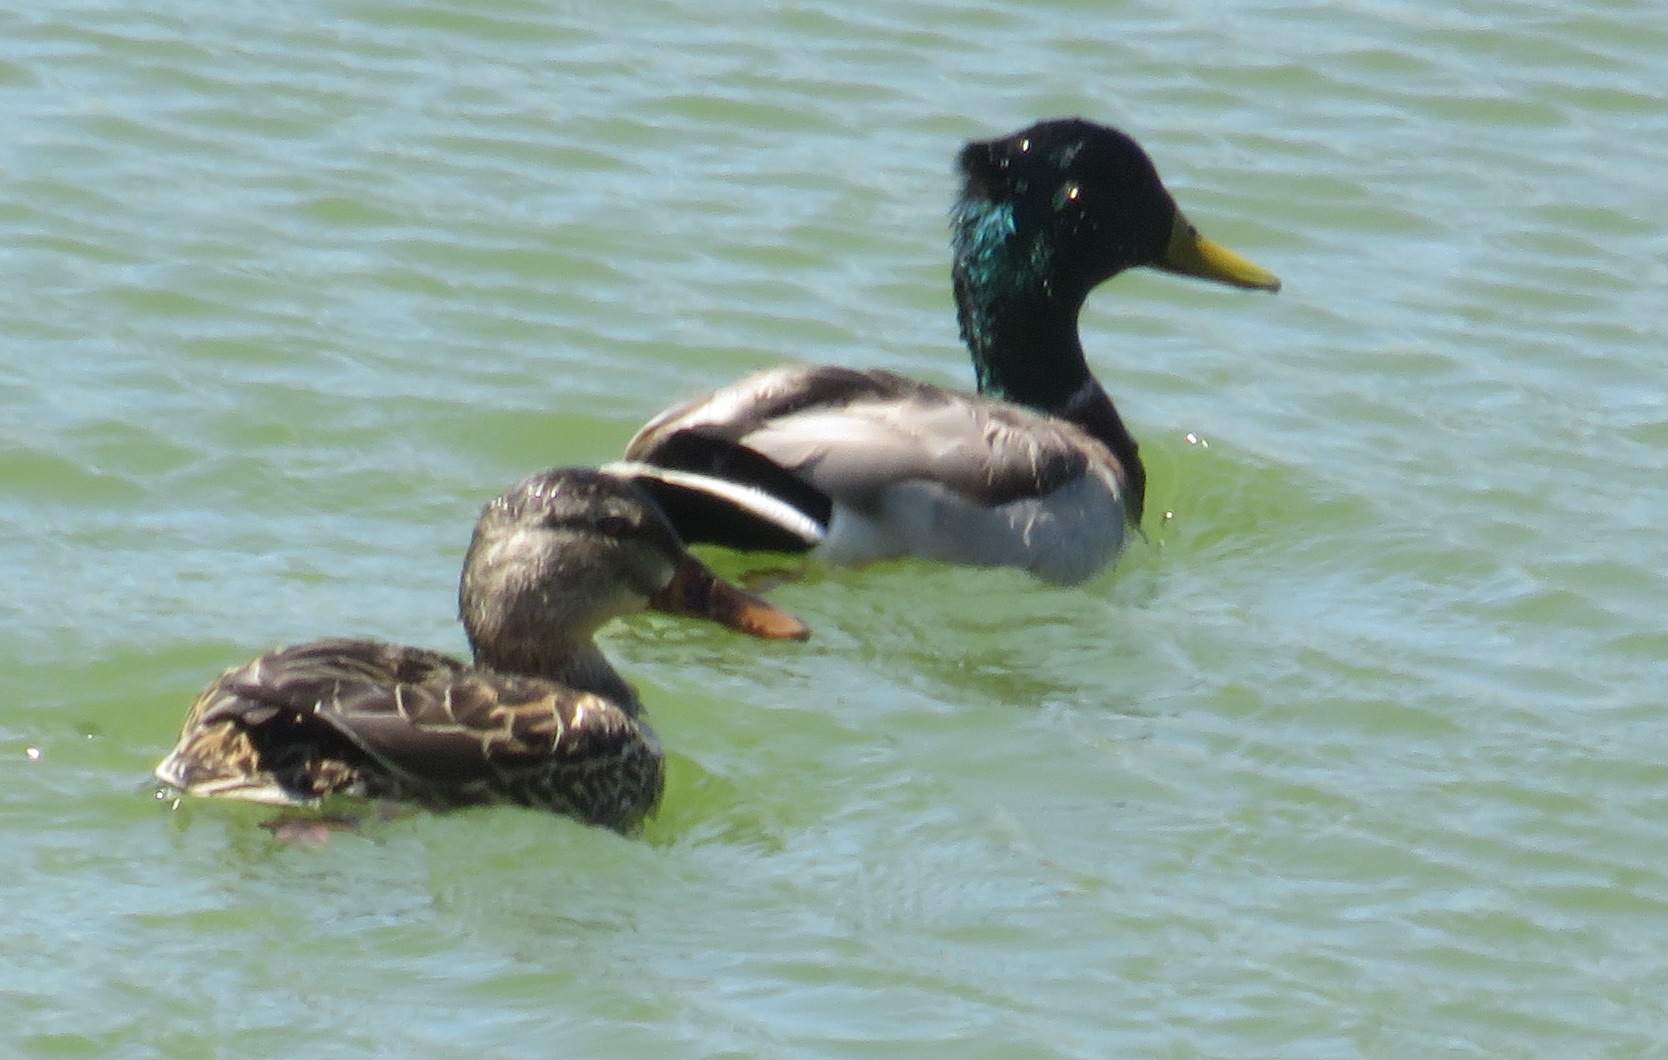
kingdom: Animalia
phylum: Chordata
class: Aves
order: Anseriformes
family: Anatidae
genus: Anas
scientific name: Anas platyrhynchos
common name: Mallard
